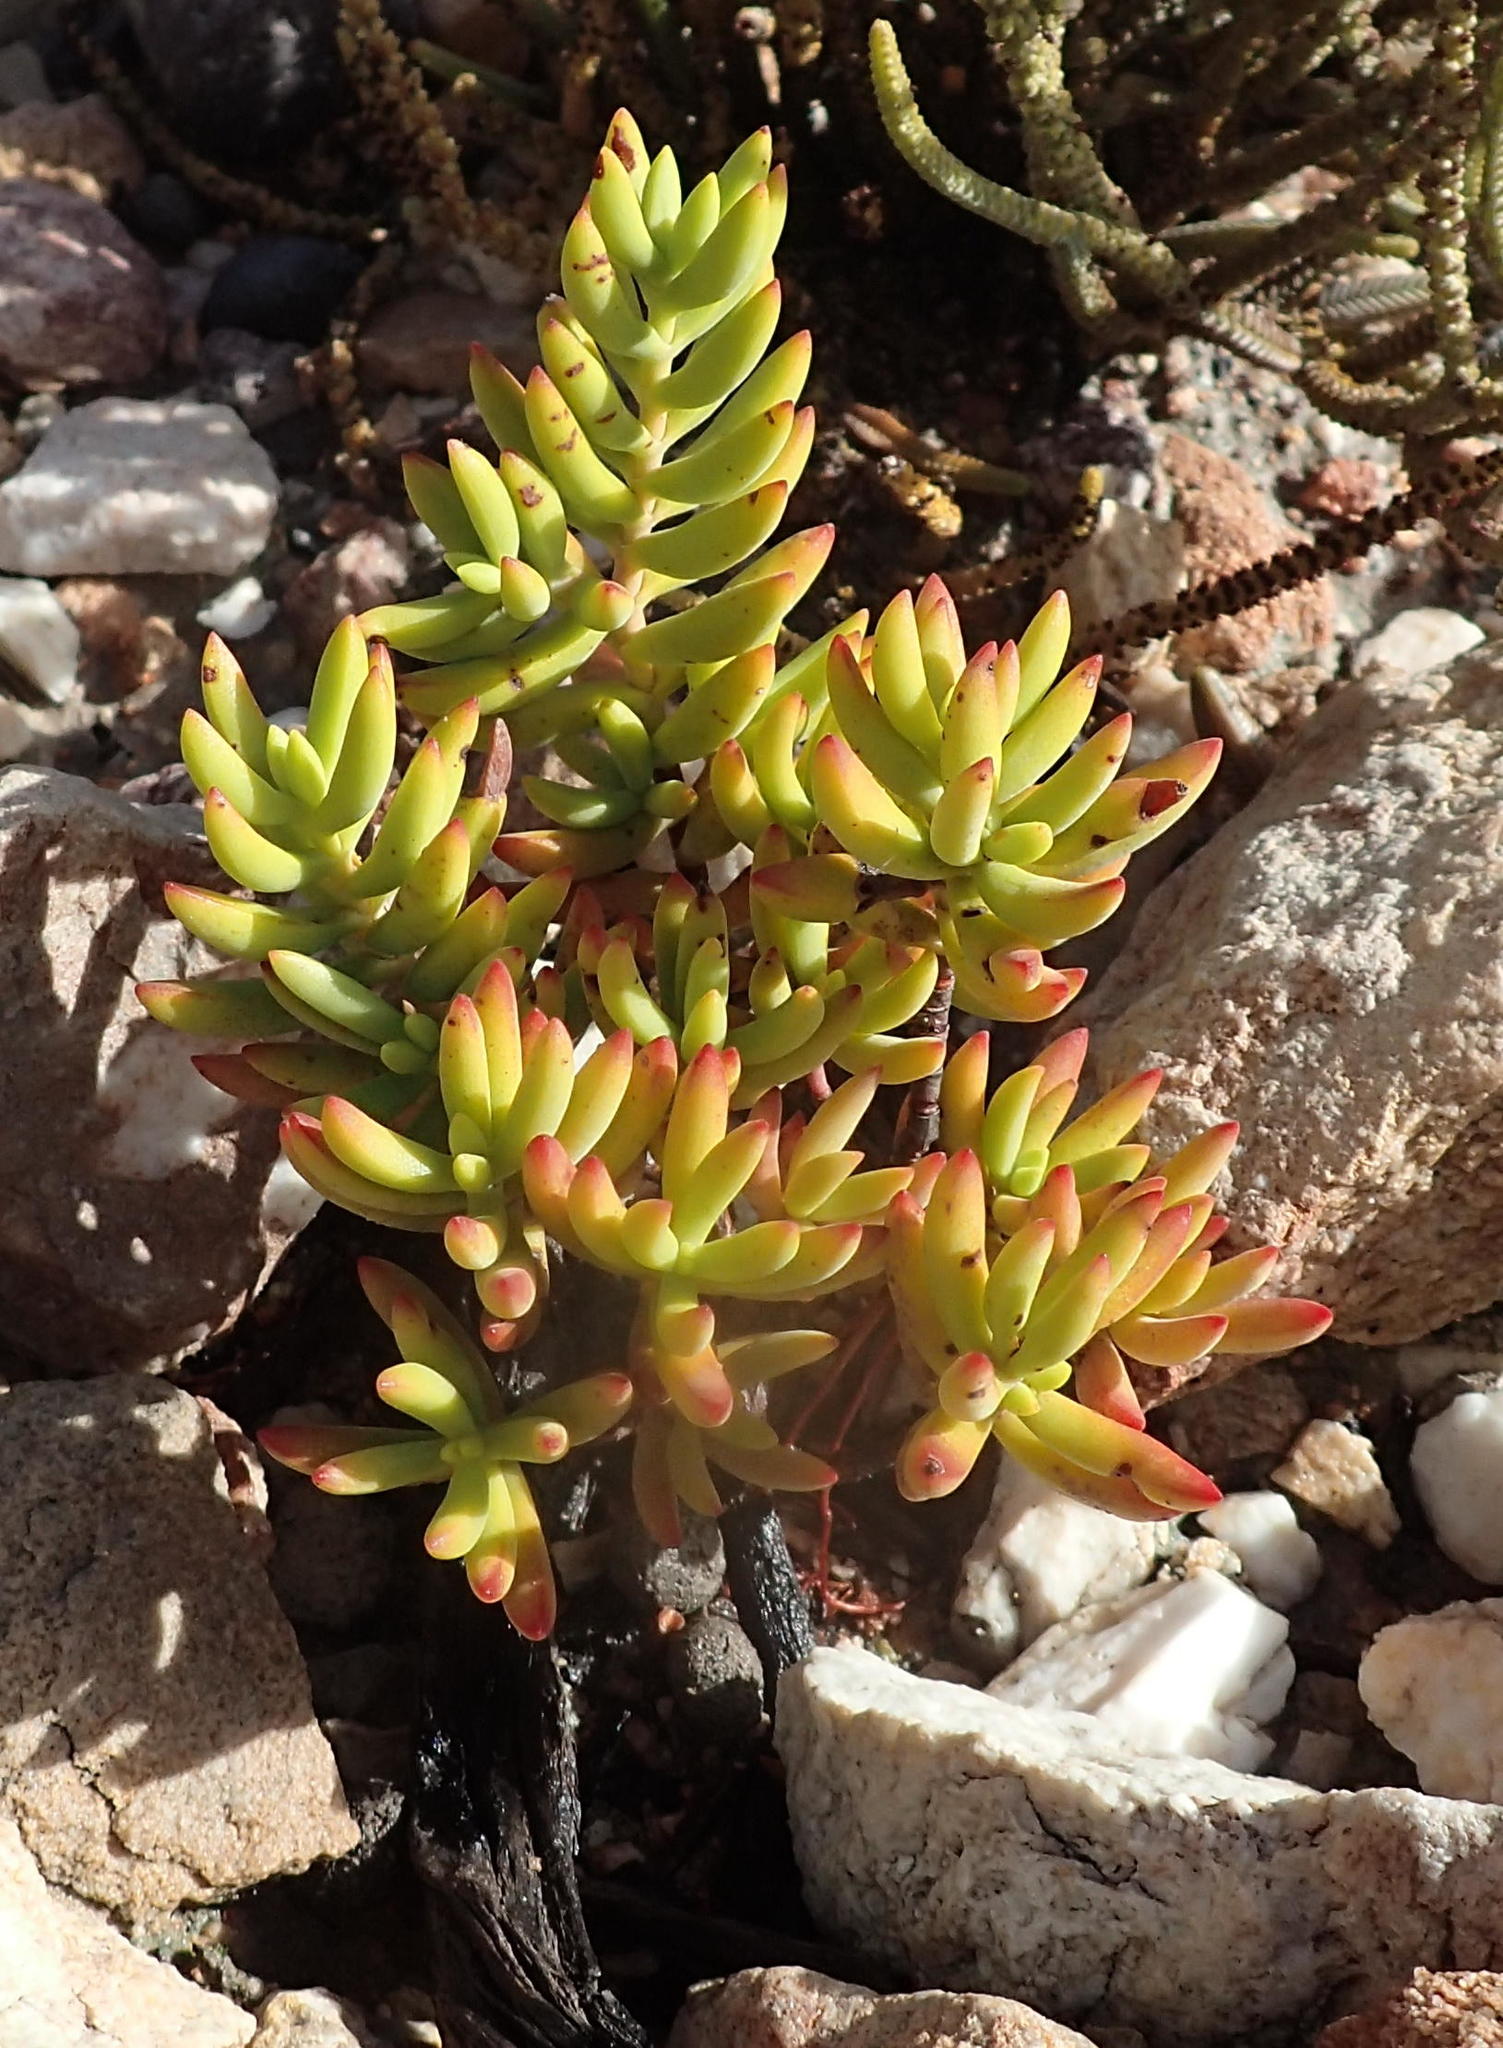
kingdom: Plantae
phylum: Tracheophyta
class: Magnoliopsida
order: Saxifragales
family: Crassulaceae
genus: Crassula
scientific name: Crassula mollis
